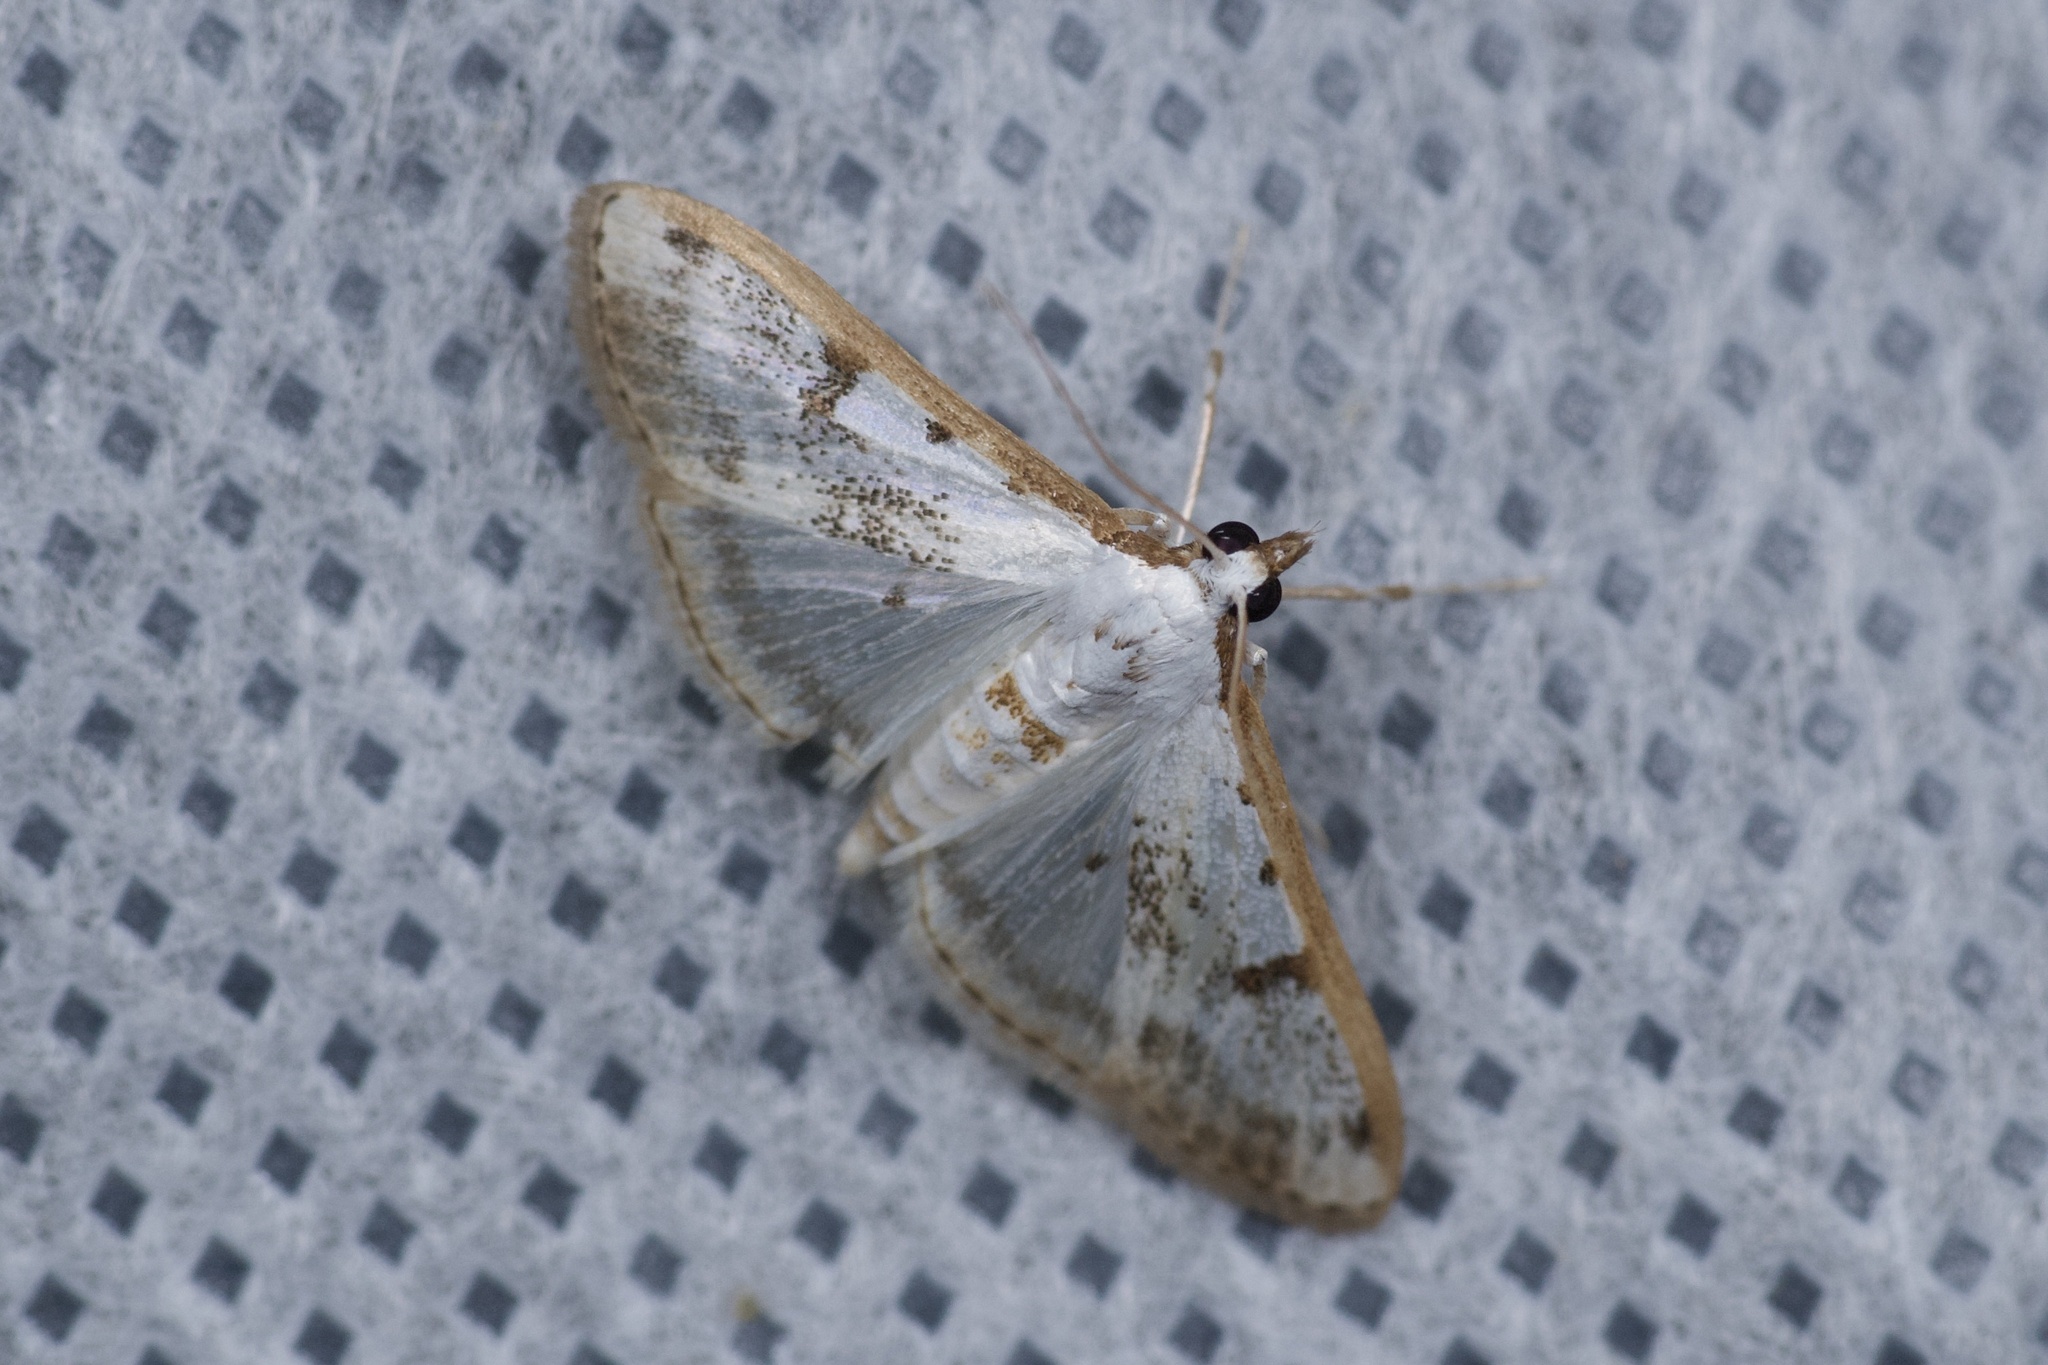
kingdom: Animalia
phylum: Arthropoda
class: Insecta
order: Lepidoptera
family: Crambidae
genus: Palpita
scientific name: Palpita gracilalis
